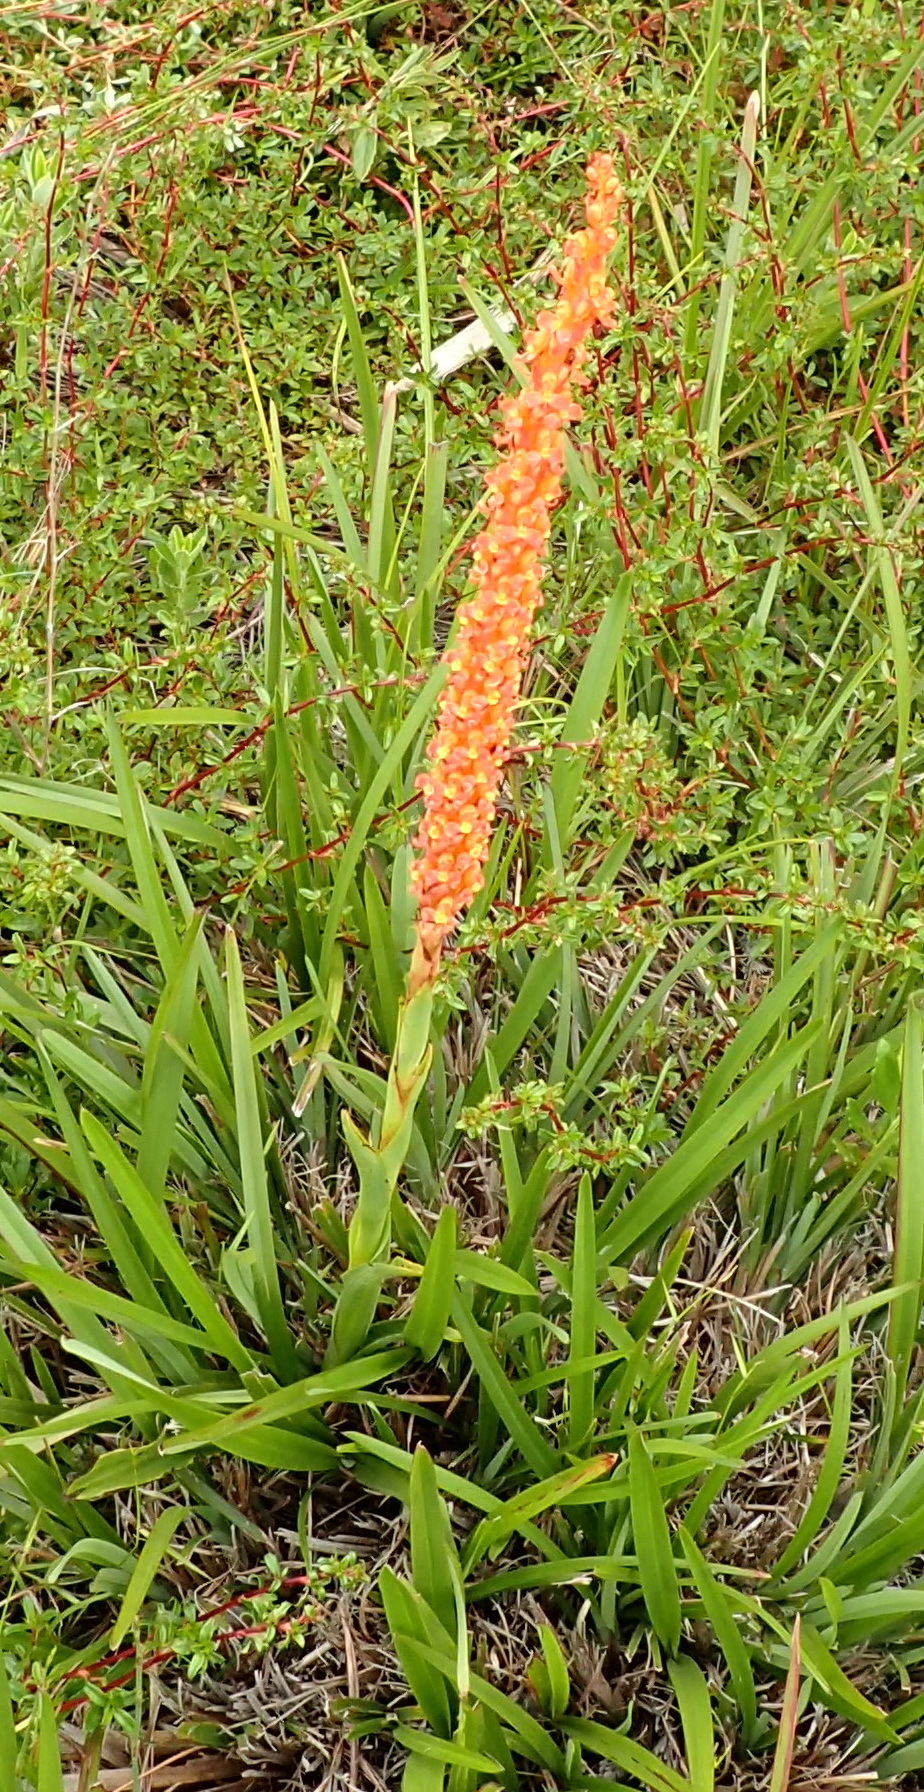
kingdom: Plantae
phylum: Tracheophyta
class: Liliopsida
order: Asparagales
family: Orchidaceae
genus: Disa
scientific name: Disa chrysostachya
